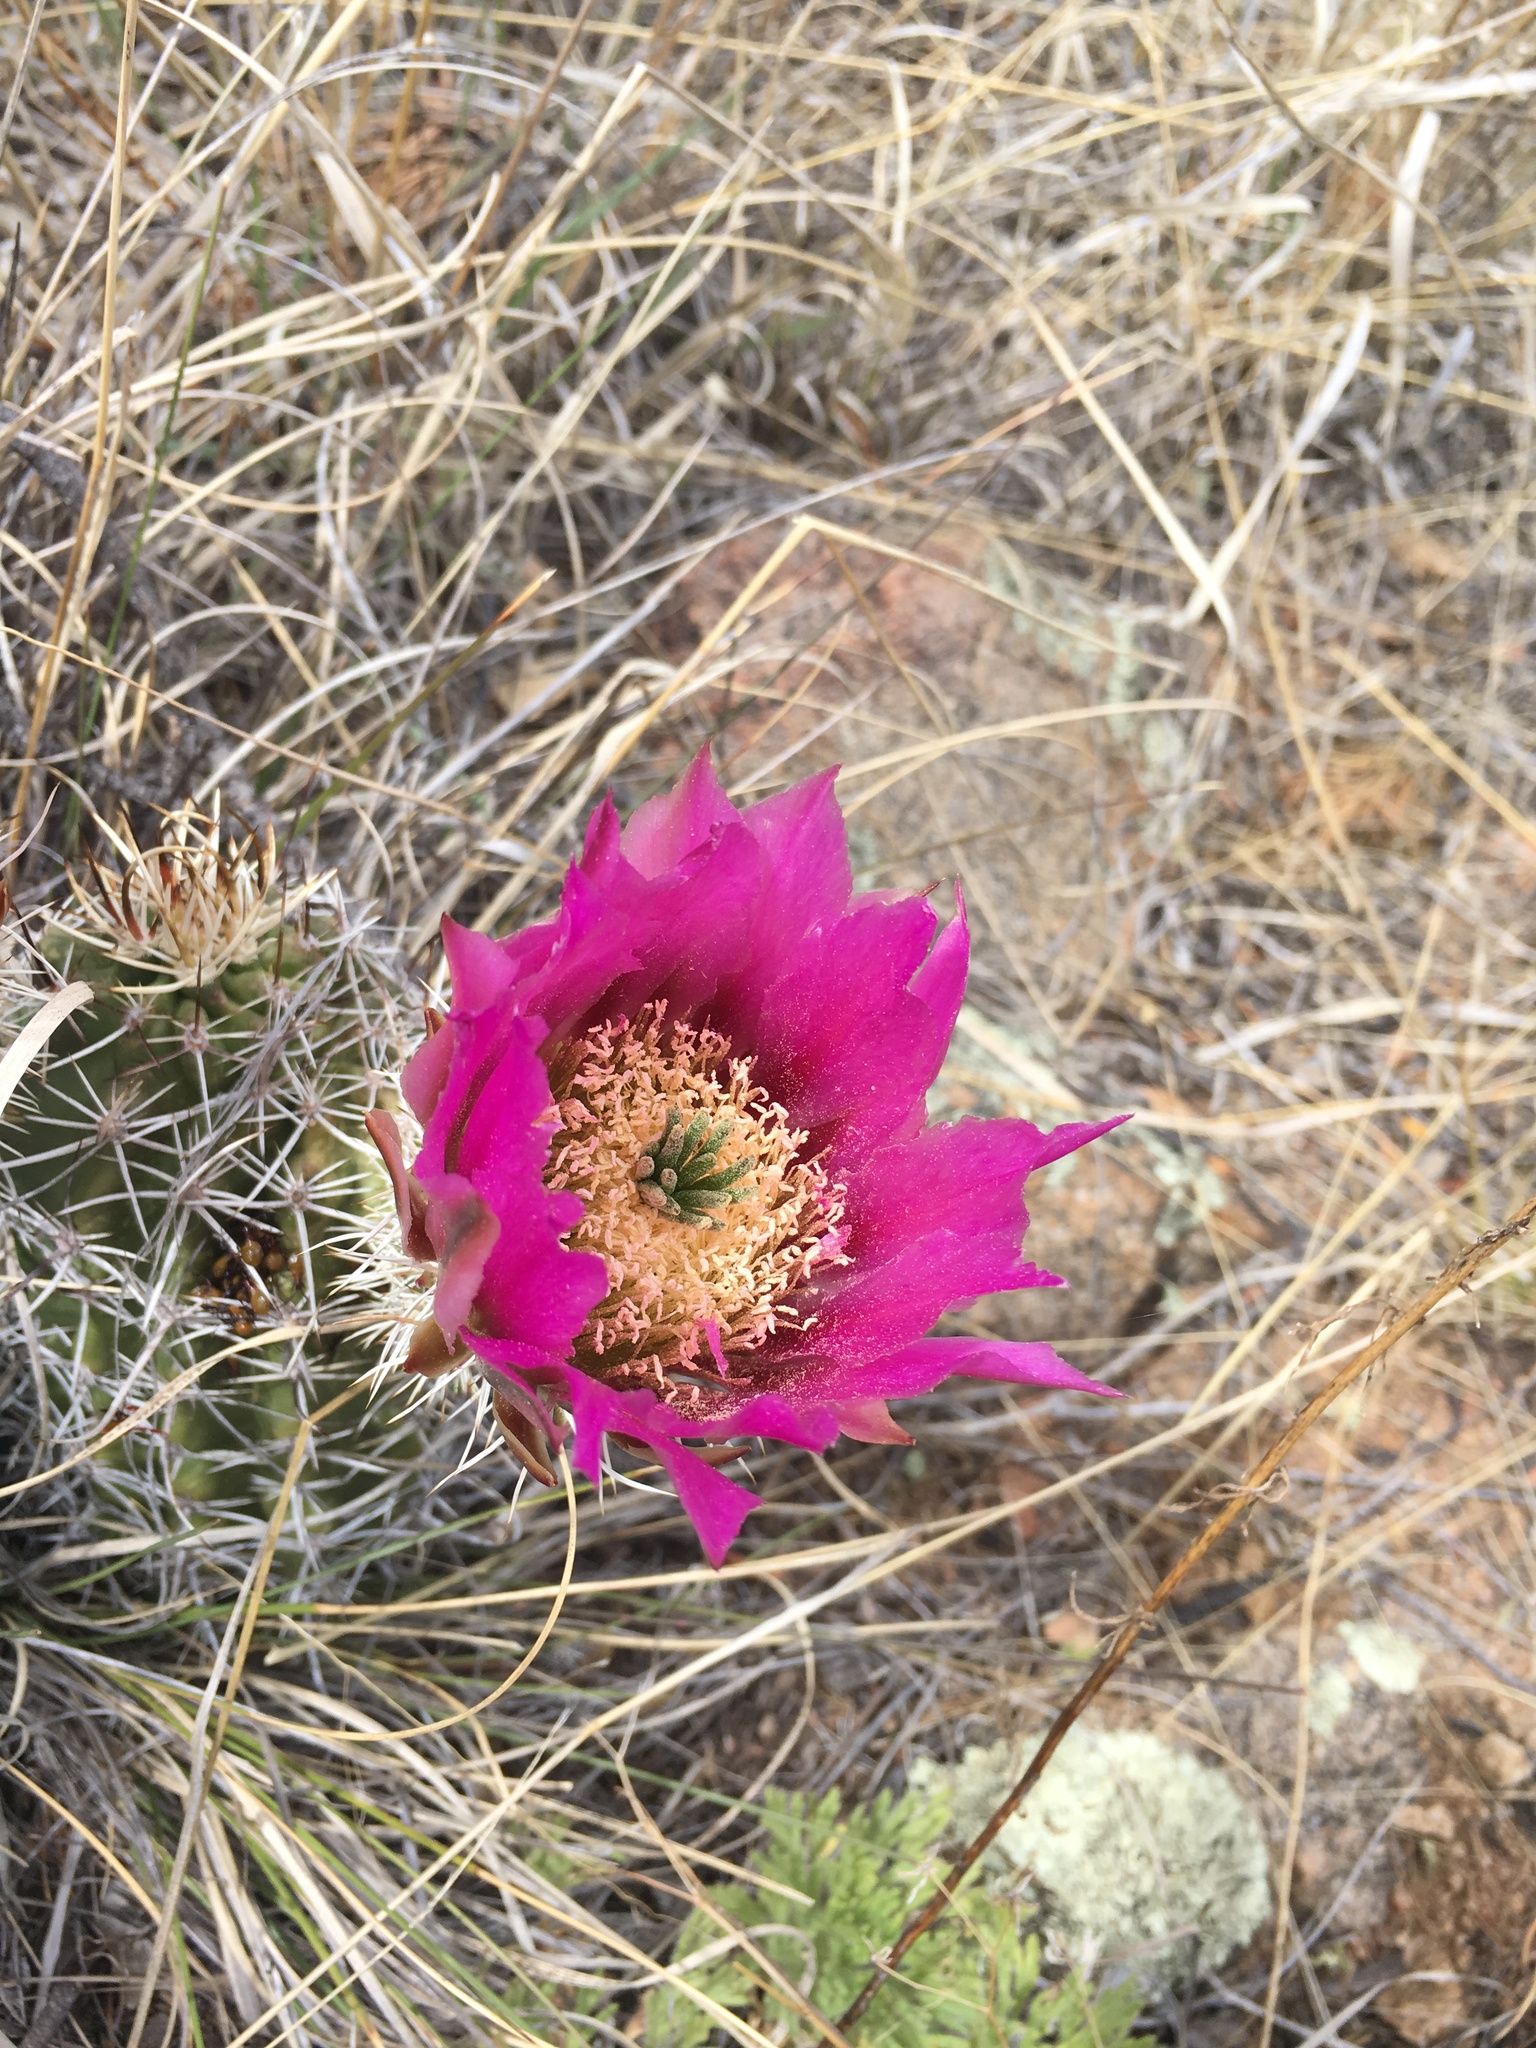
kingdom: Plantae
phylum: Tracheophyta
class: Magnoliopsida
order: Caryophyllales
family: Cactaceae
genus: Echinocereus
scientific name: Echinocereus fendleri
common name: Fendler's hedgehog cactus
